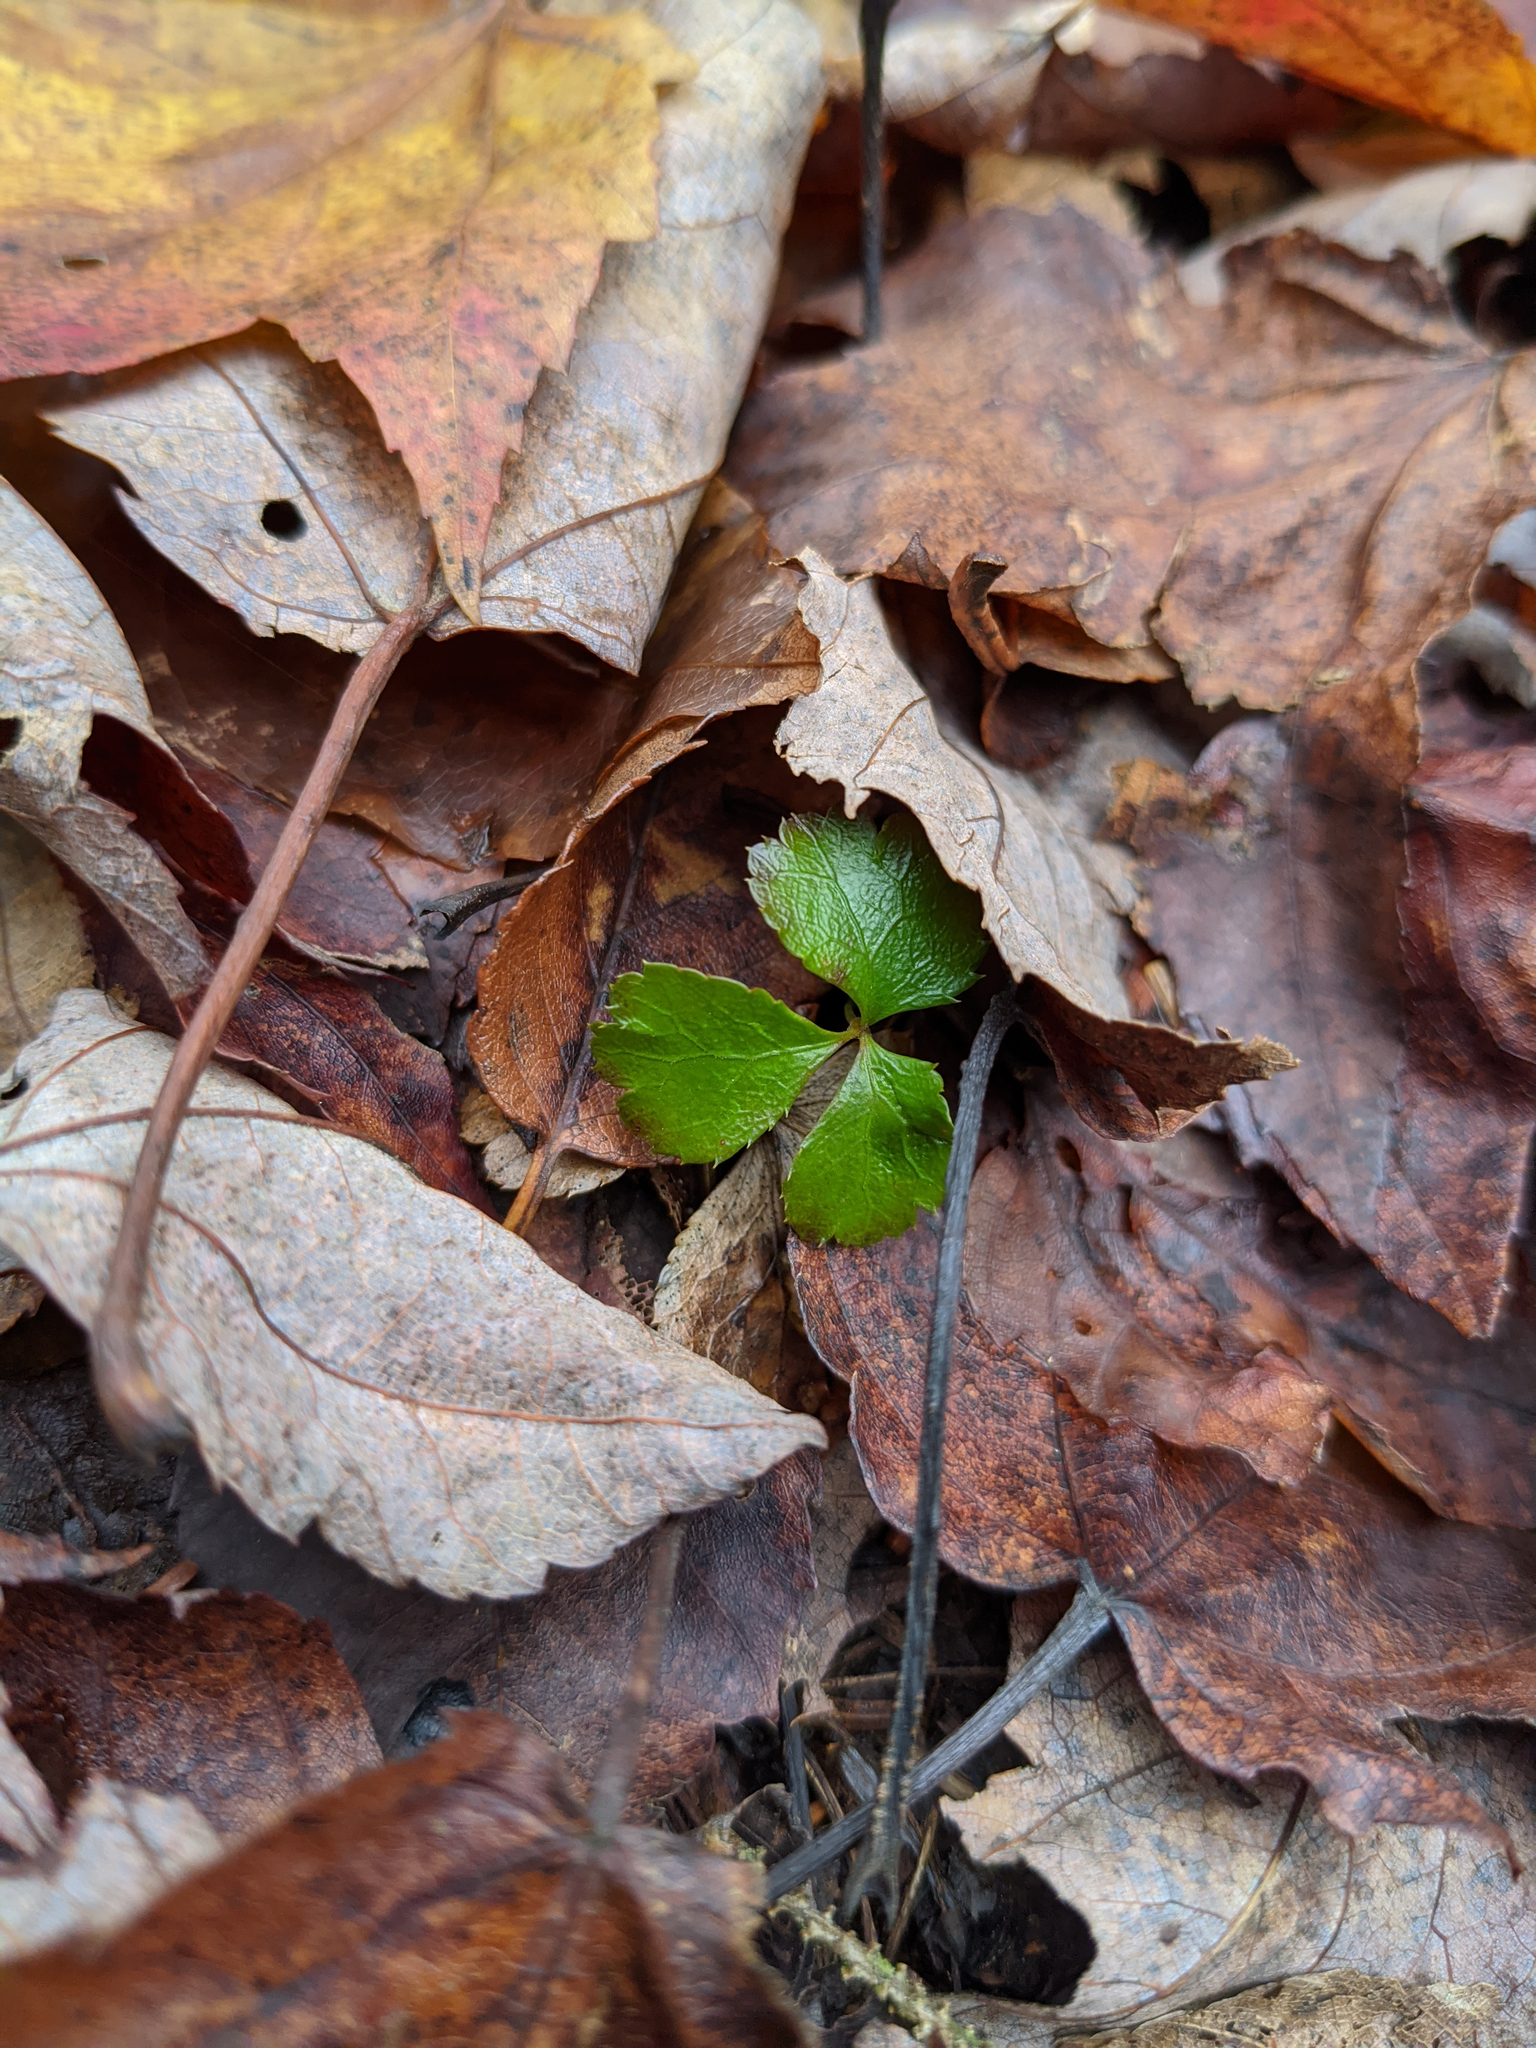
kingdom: Plantae
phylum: Tracheophyta
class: Magnoliopsida
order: Ranunculales
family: Ranunculaceae
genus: Coptis
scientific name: Coptis trifolia
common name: Canker-root
